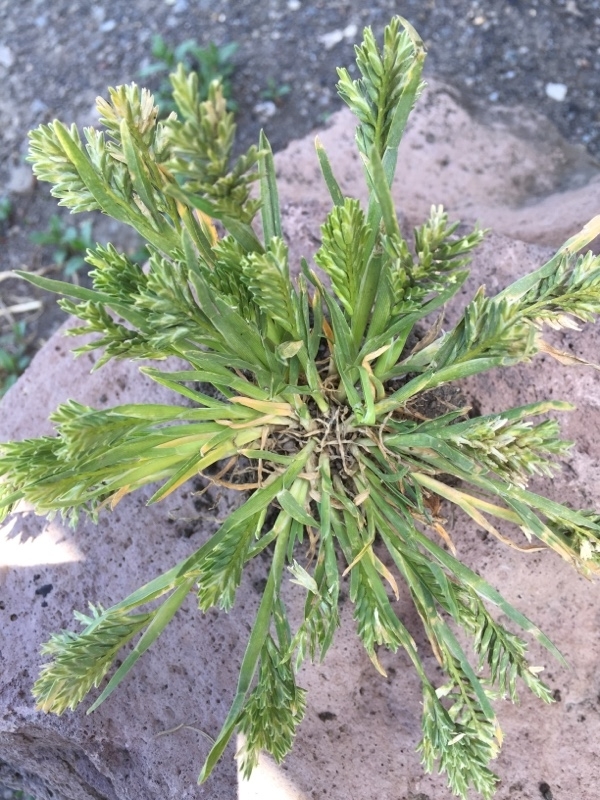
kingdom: Plantae
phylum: Tracheophyta
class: Liliopsida
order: Poales
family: Poaceae
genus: Sclerochloa
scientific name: Sclerochloa dura
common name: Common hardgrass
